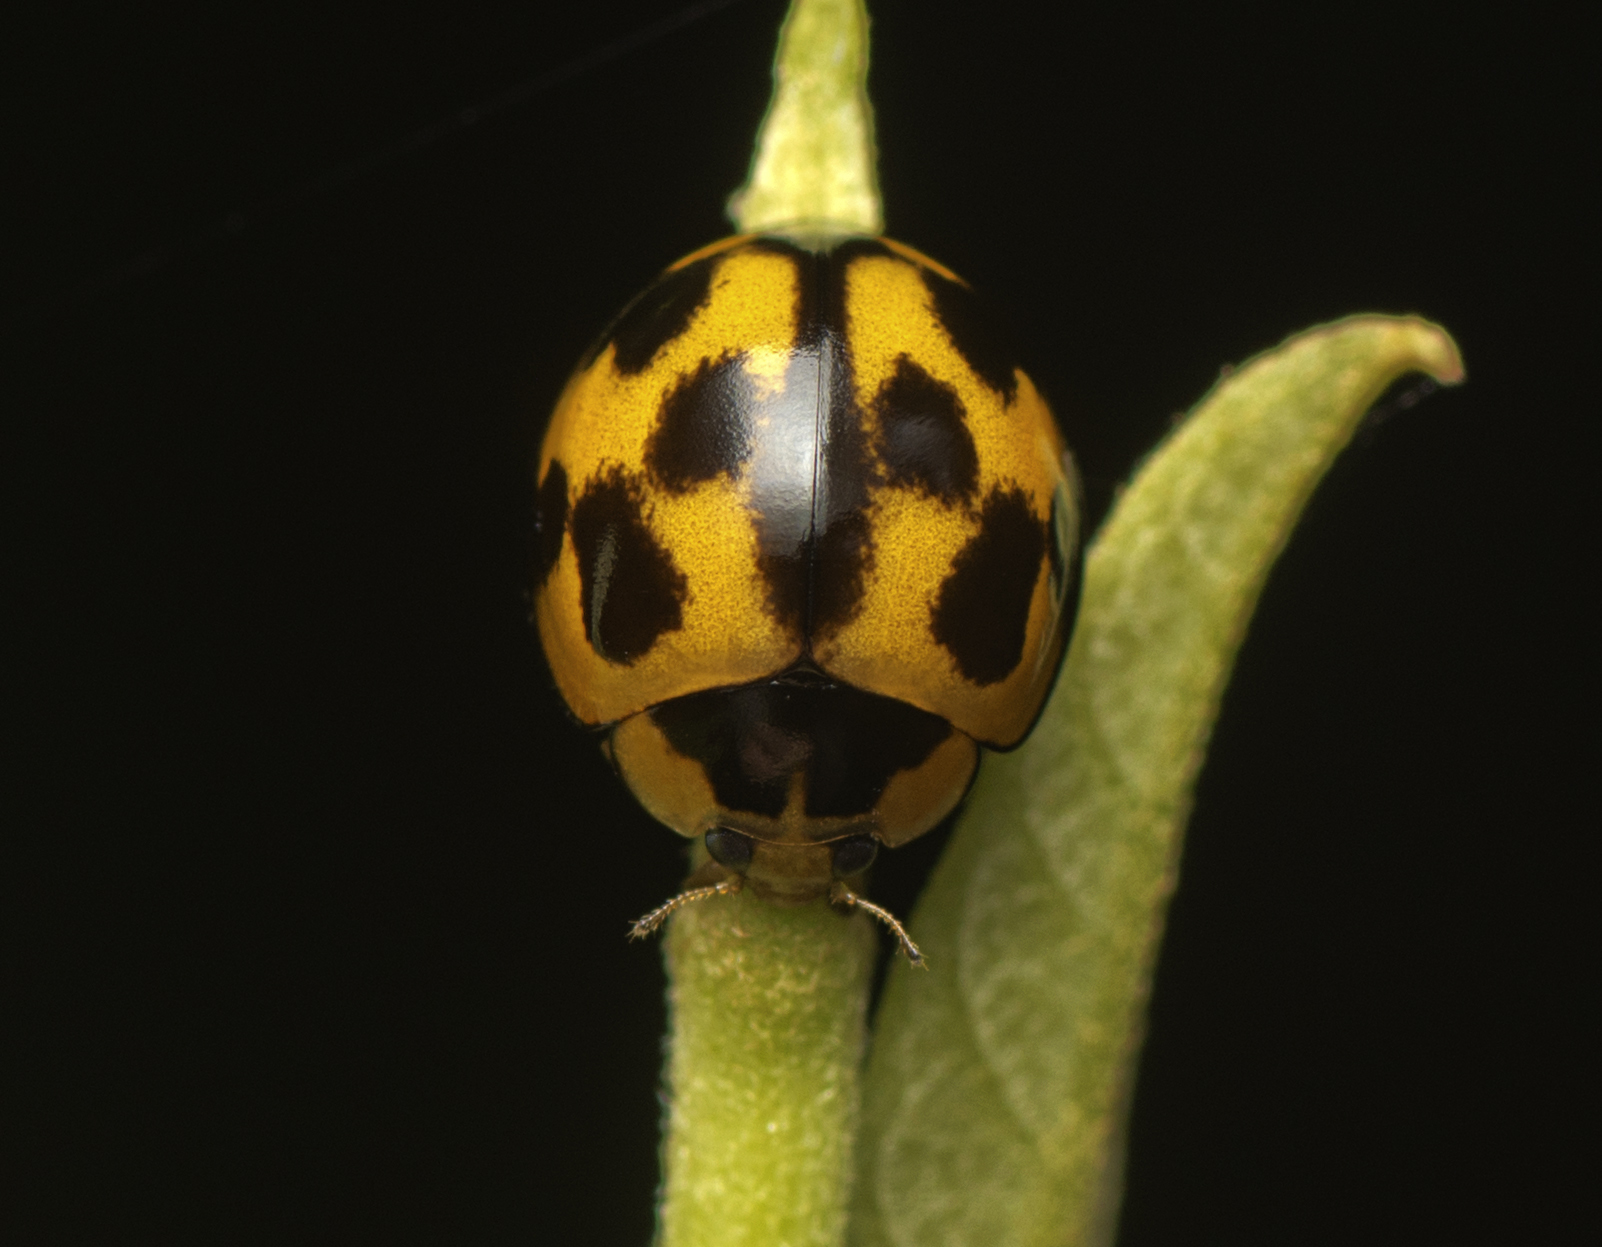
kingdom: Animalia
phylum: Arthropoda
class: Insecta
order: Coleoptera
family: Coccinellidae
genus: Coelophora
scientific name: Coelophora inaequalis
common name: Common australian lady beetle
